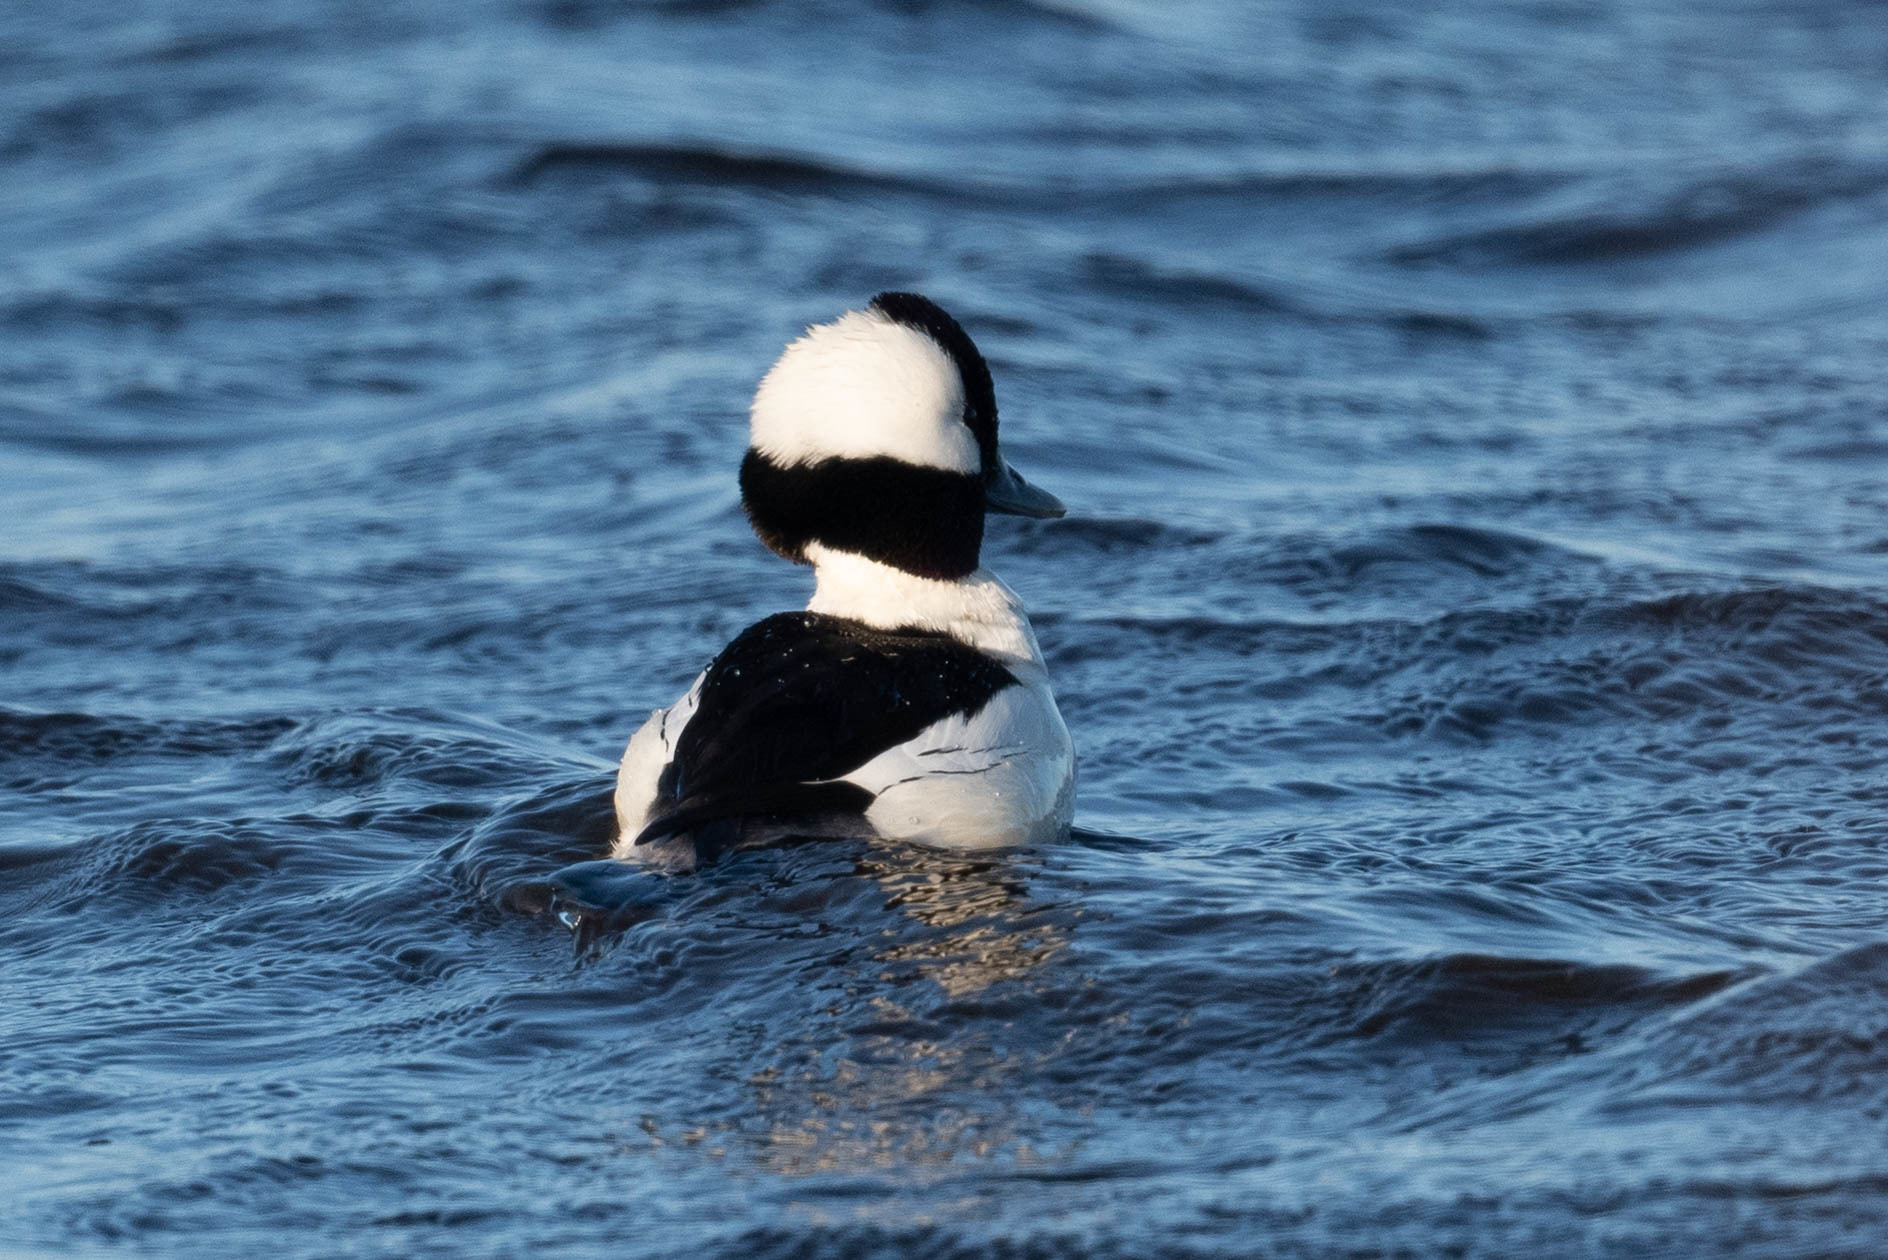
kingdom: Animalia
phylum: Chordata
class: Aves
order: Anseriformes
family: Anatidae
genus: Bucephala
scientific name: Bucephala albeola
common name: Bufflehead
